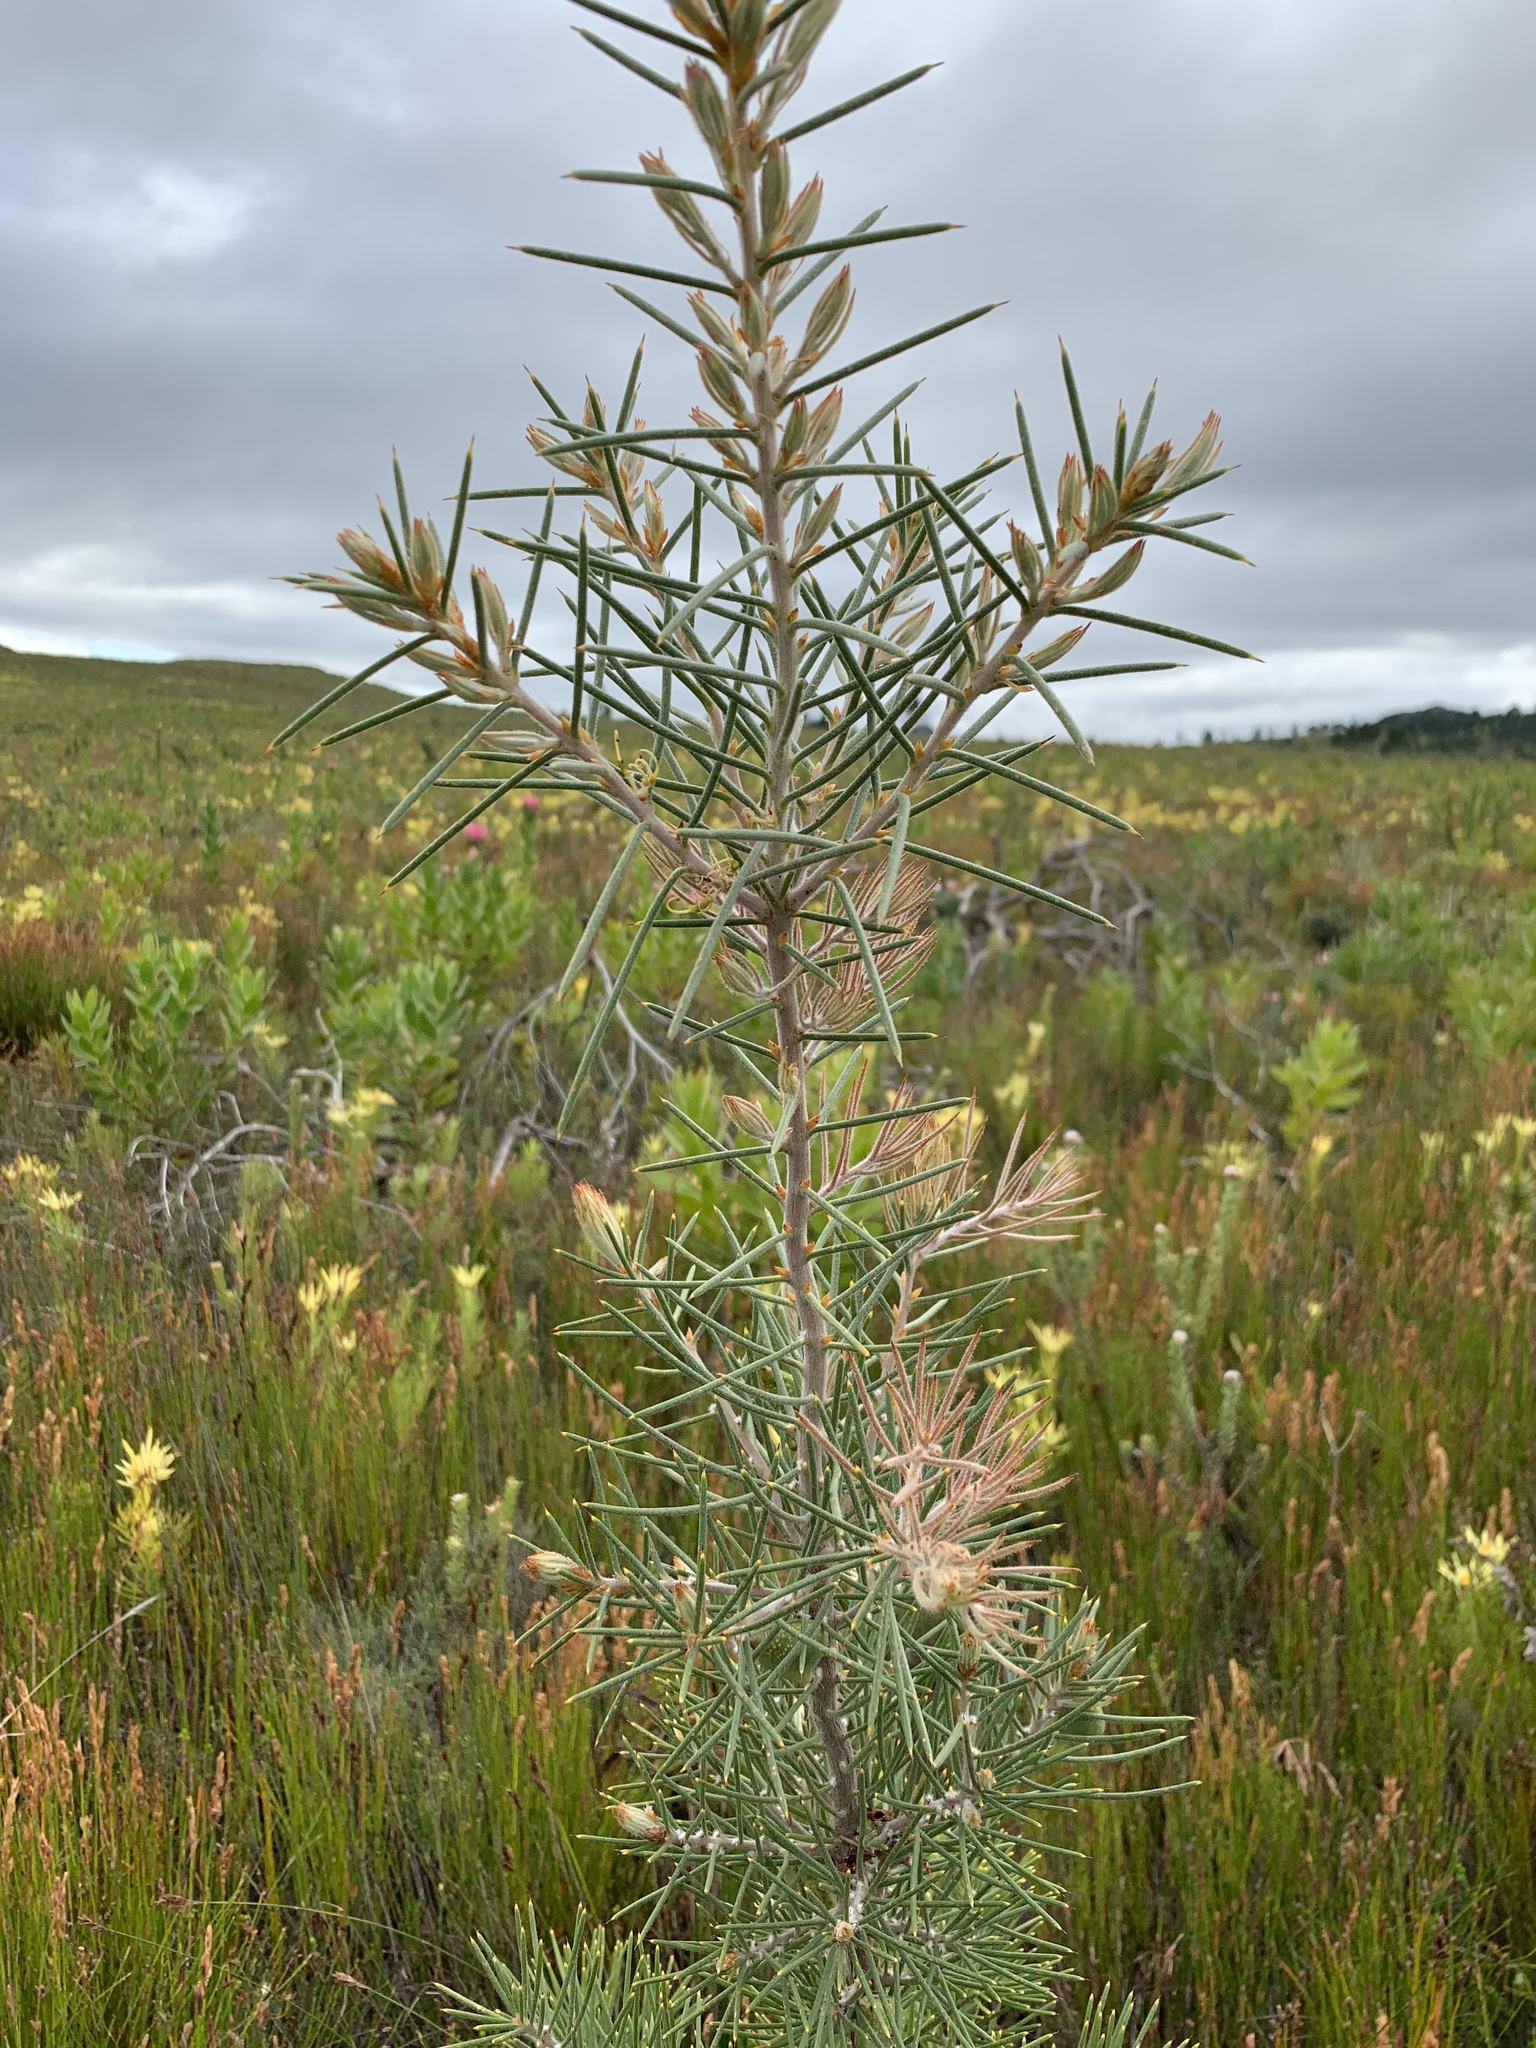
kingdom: Plantae
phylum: Tracheophyta
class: Magnoliopsida
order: Proteales
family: Proteaceae
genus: Hakea
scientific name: Hakea gibbosa
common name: Rock hakea
